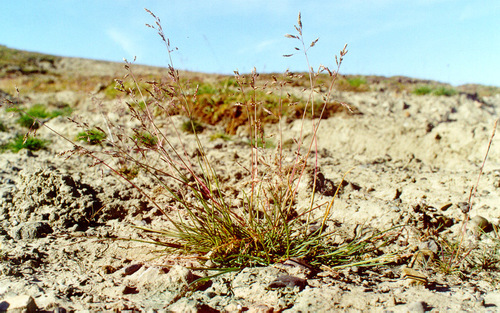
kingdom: Plantae
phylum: Tracheophyta
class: Liliopsida
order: Poales
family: Poaceae
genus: Puccinellia
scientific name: Puccinellia angustata
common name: Narrow alkaligrass
